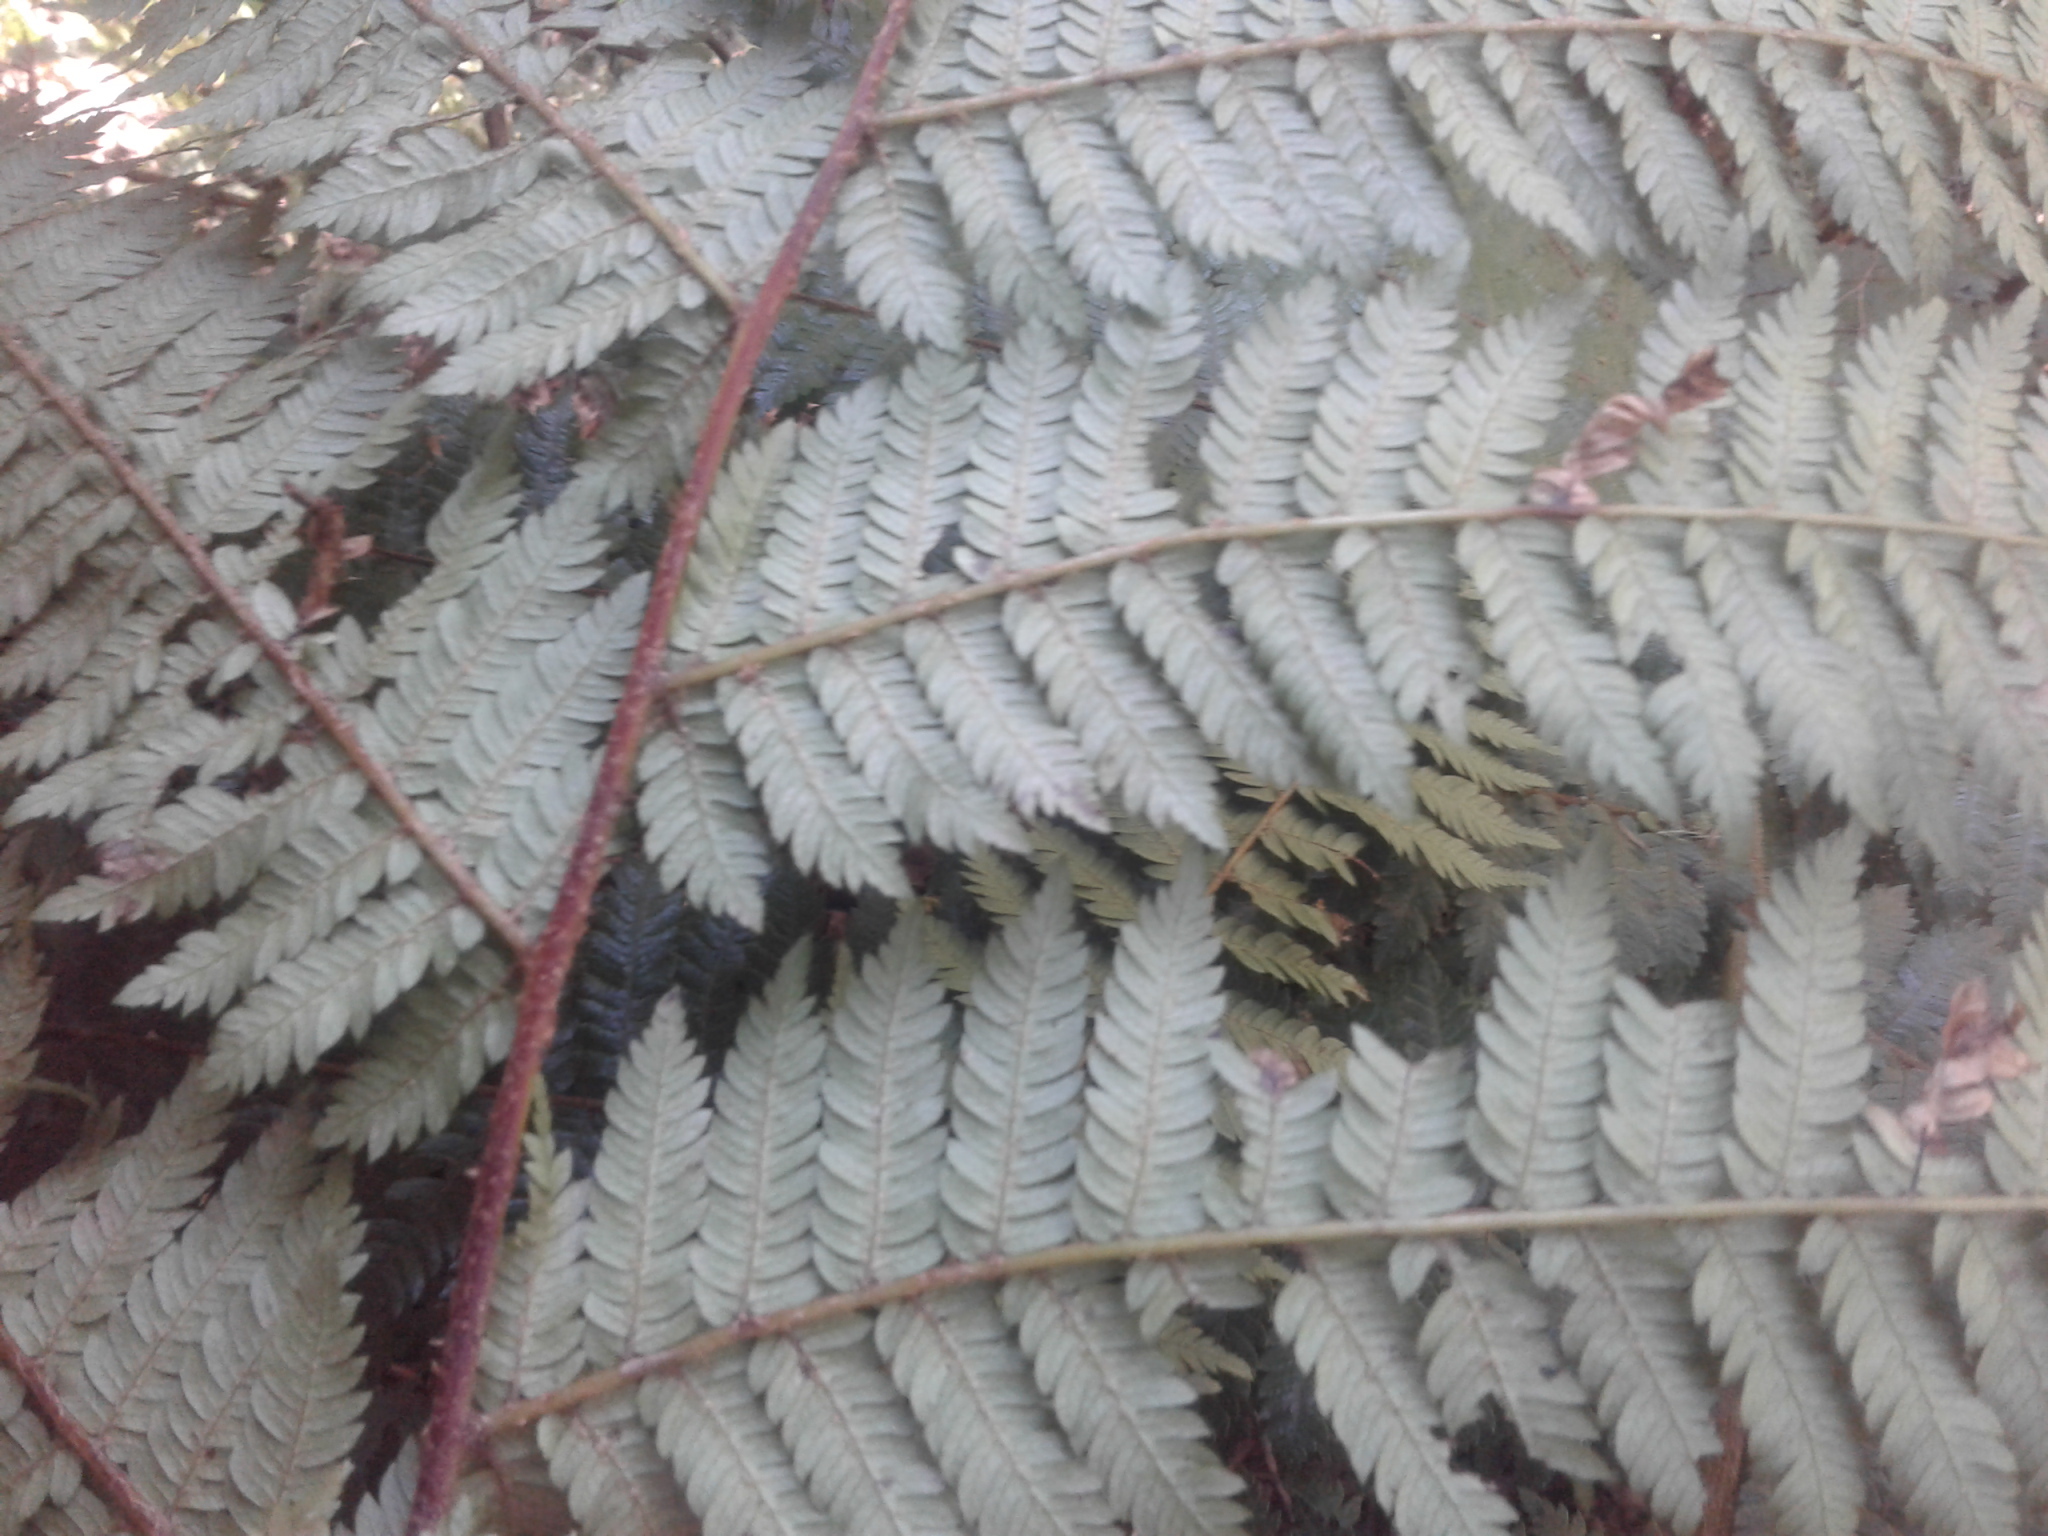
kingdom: Plantae
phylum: Tracheophyta
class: Polypodiopsida
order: Cyatheales
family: Cyatheaceae
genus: Alsophila
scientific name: Alsophila smithii
